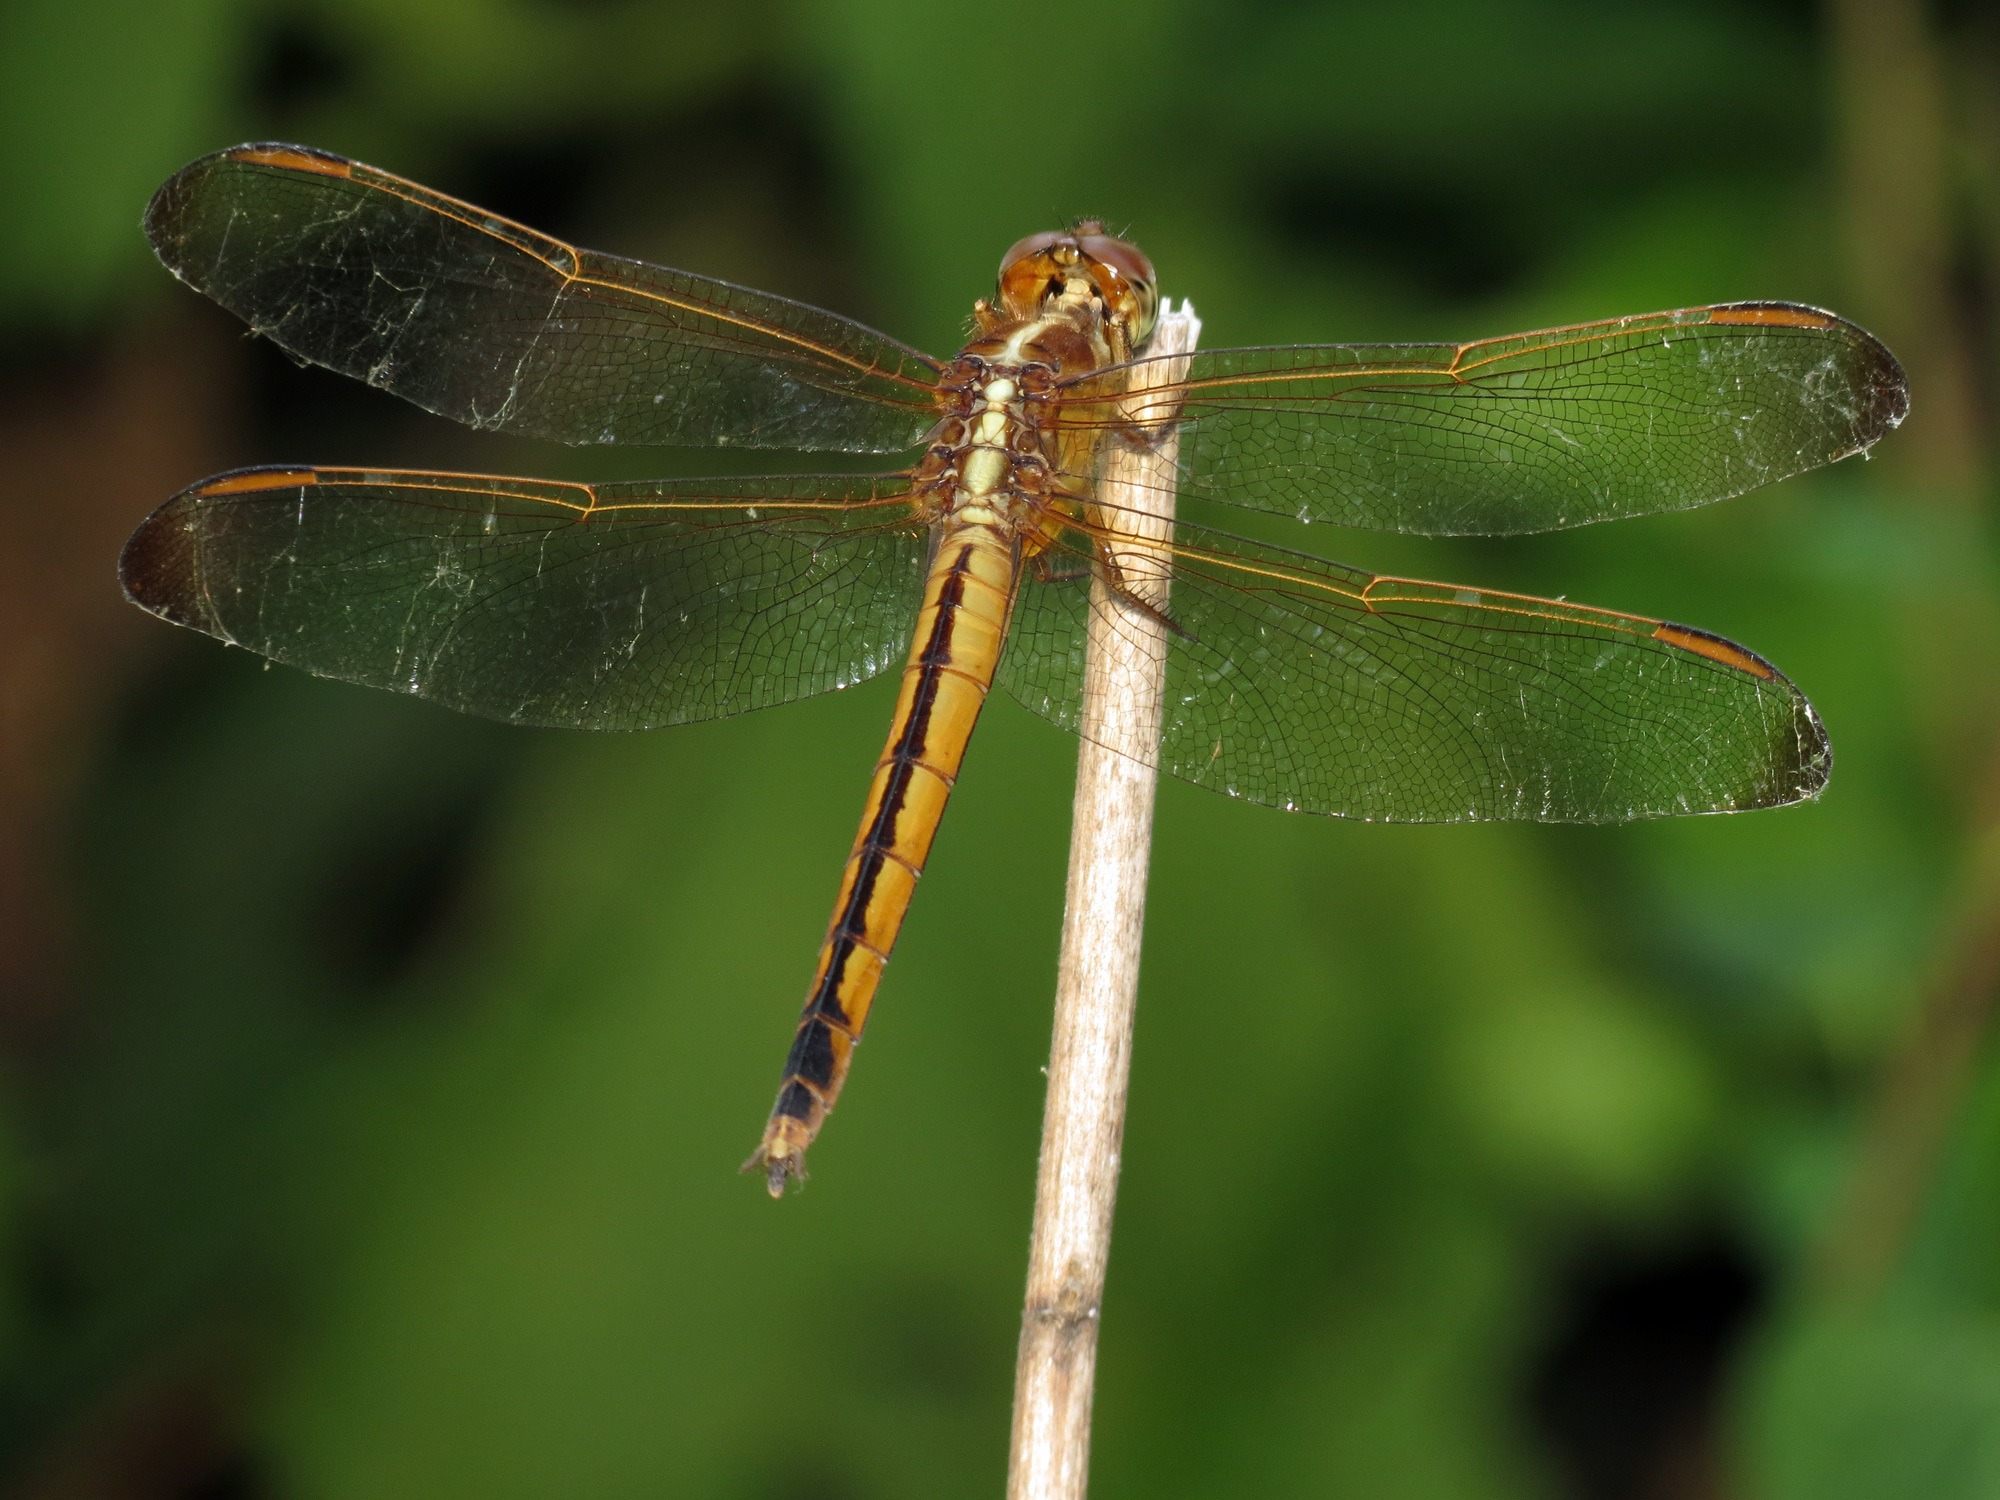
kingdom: Animalia
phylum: Arthropoda
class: Insecta
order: Odonata
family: Libellulidae
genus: Libellula
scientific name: Libellula needhami
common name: Needham's skimmer
